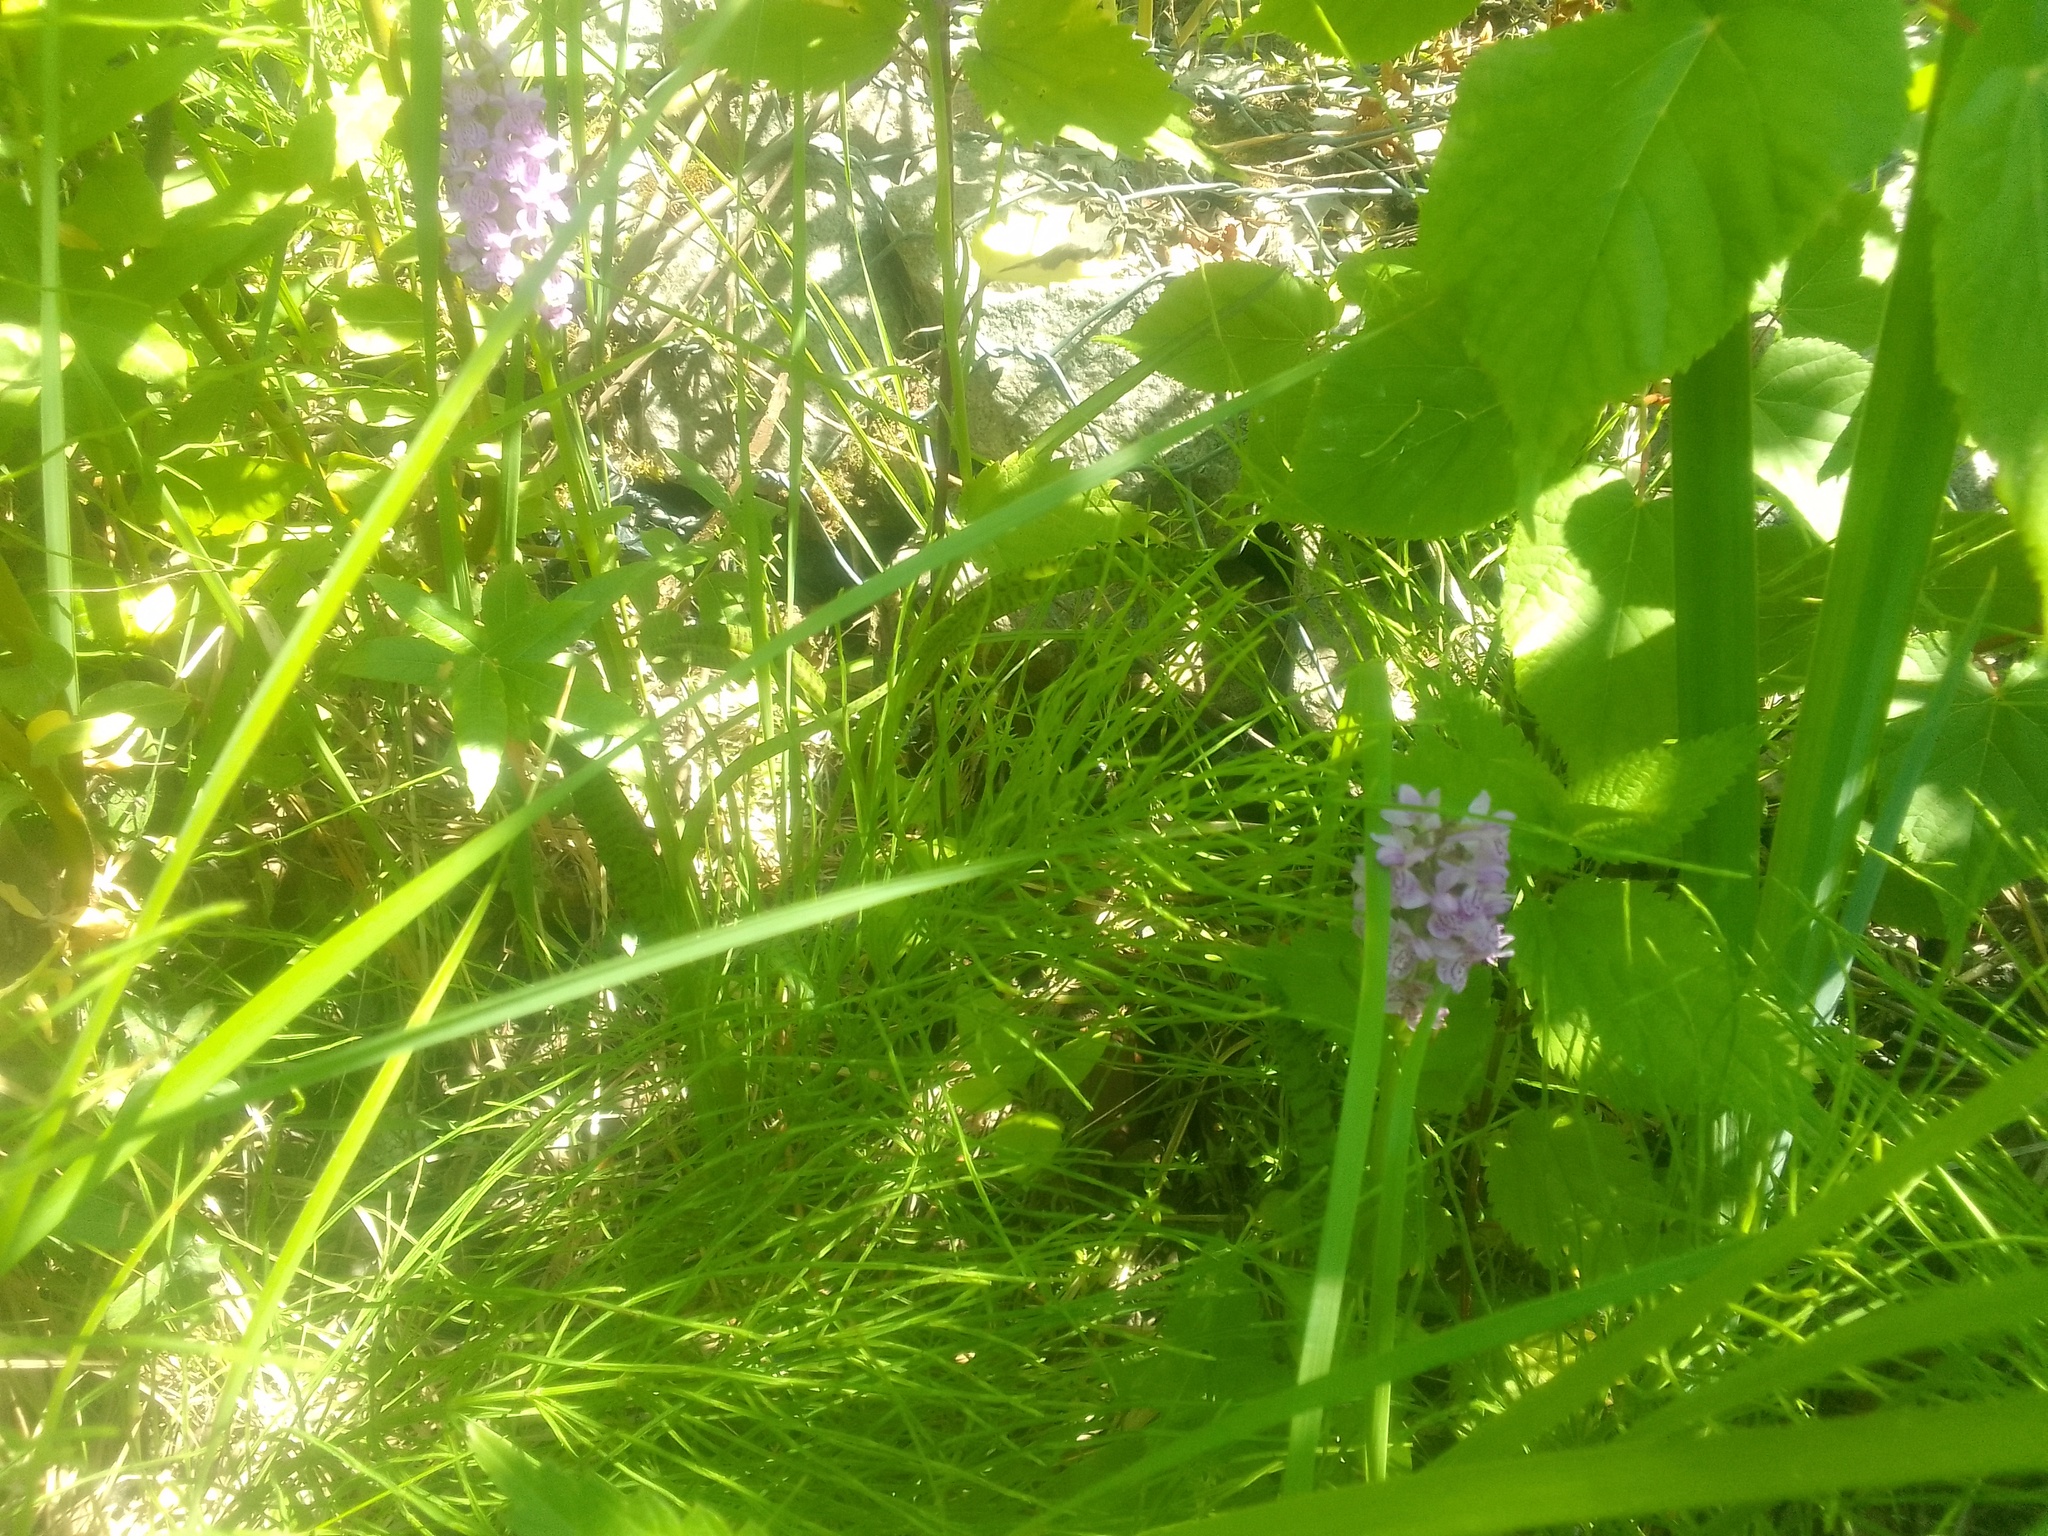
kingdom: Plantae
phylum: Tracheophyta
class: Liliopsida
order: Asparagales
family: Orchidaceae
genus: Dactylorhiza
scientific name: Dactylorhiza majalis
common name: Marsh orchid
